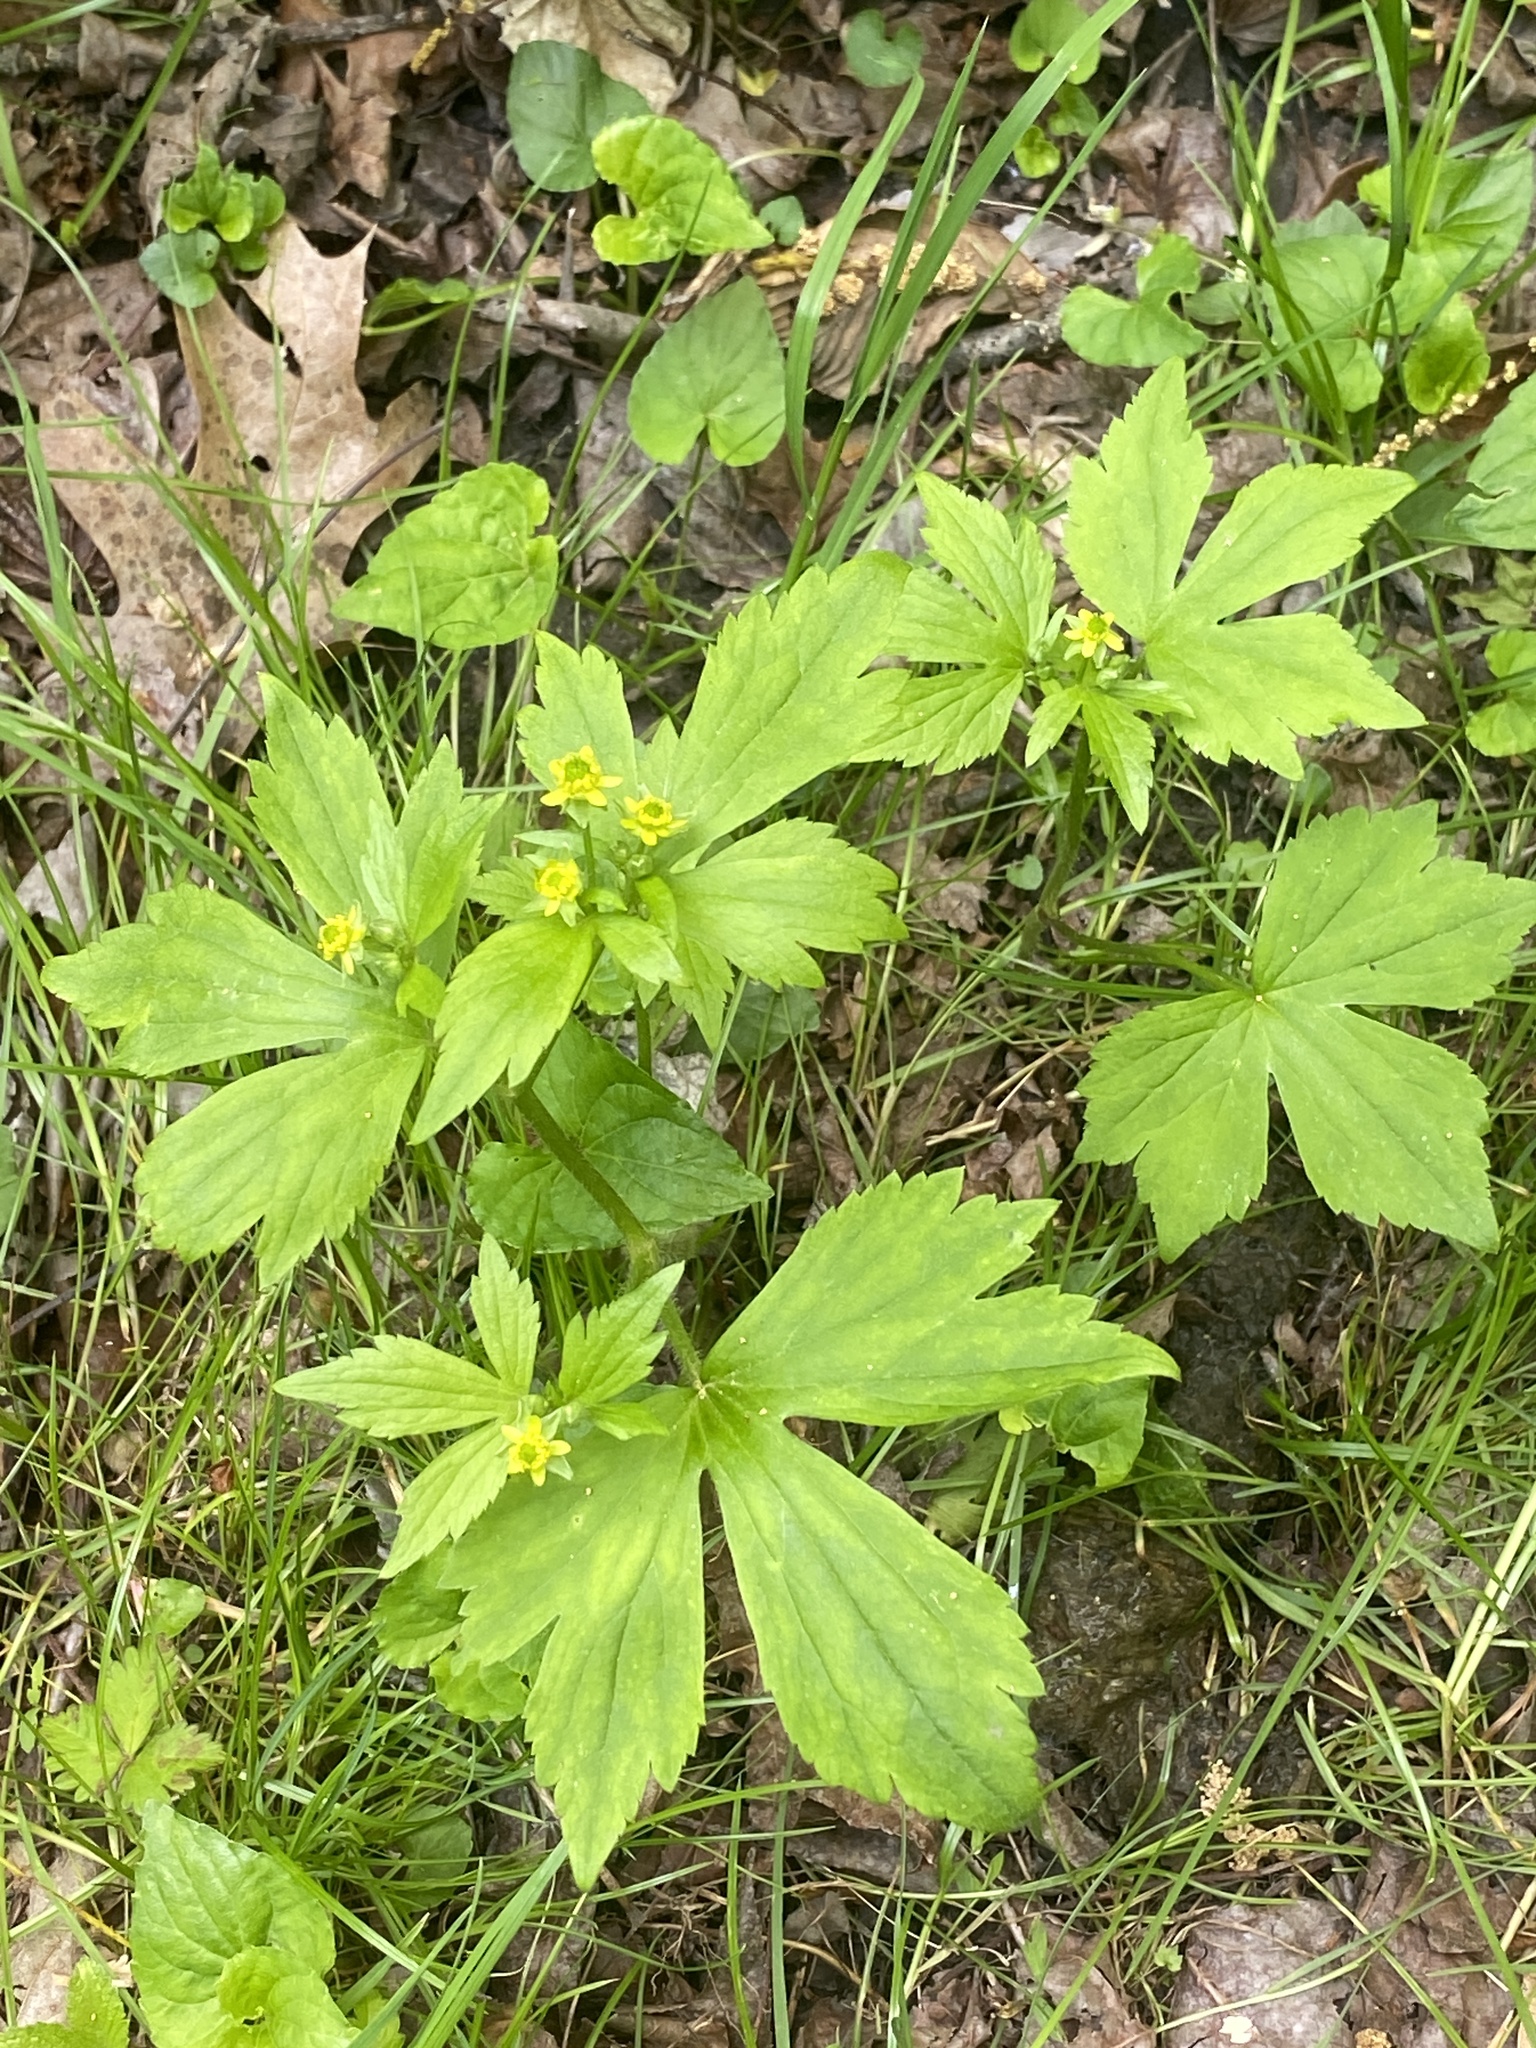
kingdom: Plantae
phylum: Tracheophyta
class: Magnoliopsida
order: Ranunculales
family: Ranunculaceae
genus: Ranunculus
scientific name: Ranunculus recurvatus
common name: Blisterwort
